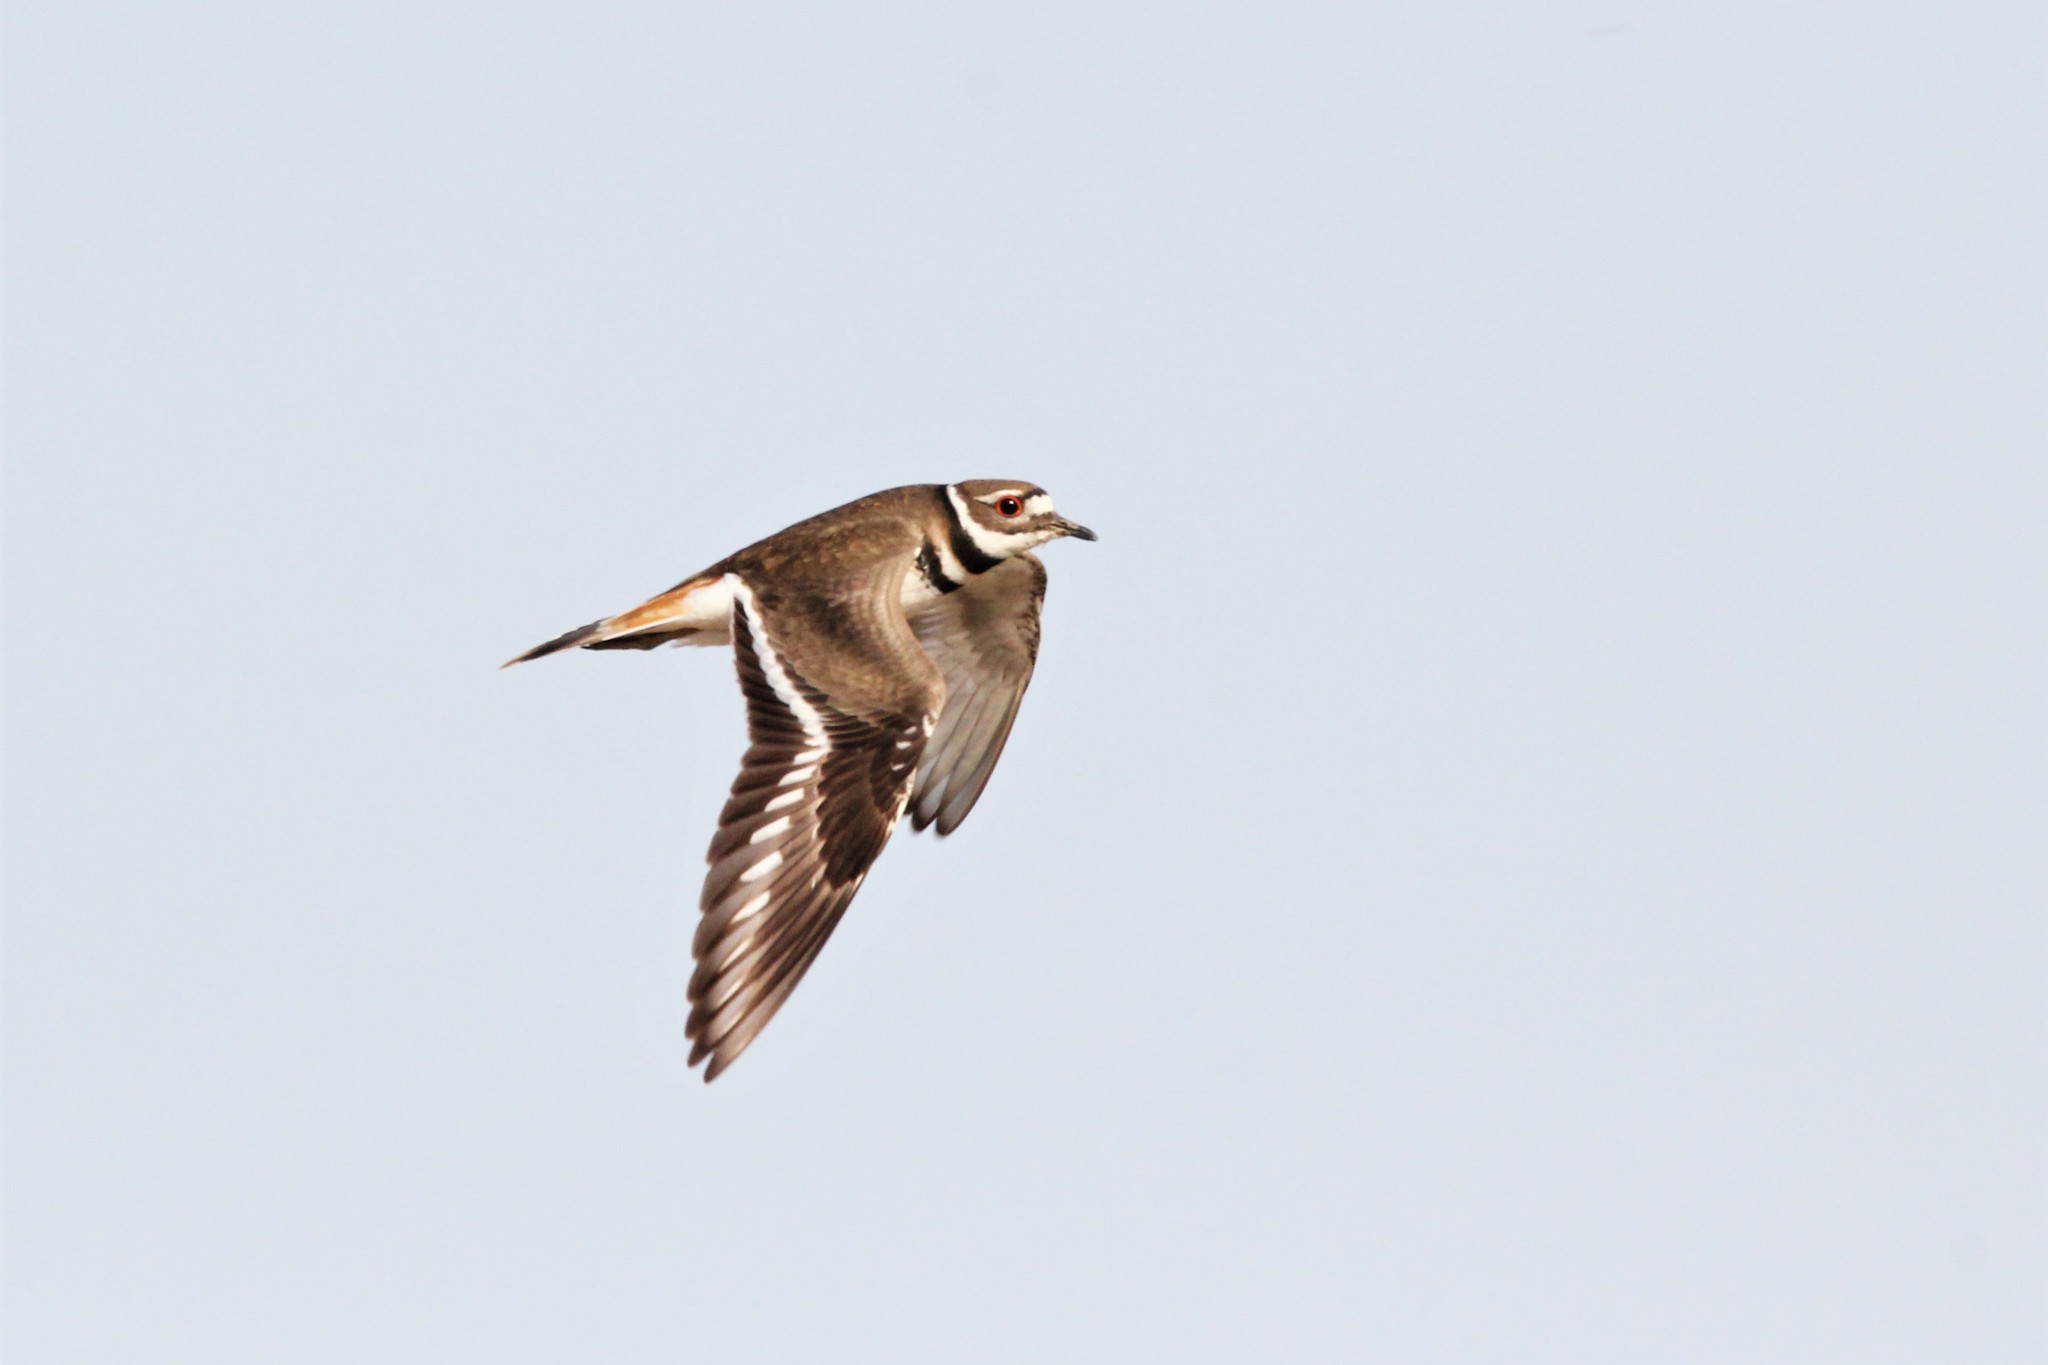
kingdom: Animalia
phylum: Chordata
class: Aves
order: Charadriiformes
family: Charadriidae
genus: Charadrius
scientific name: Charadrius vociferus
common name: Killdeer
